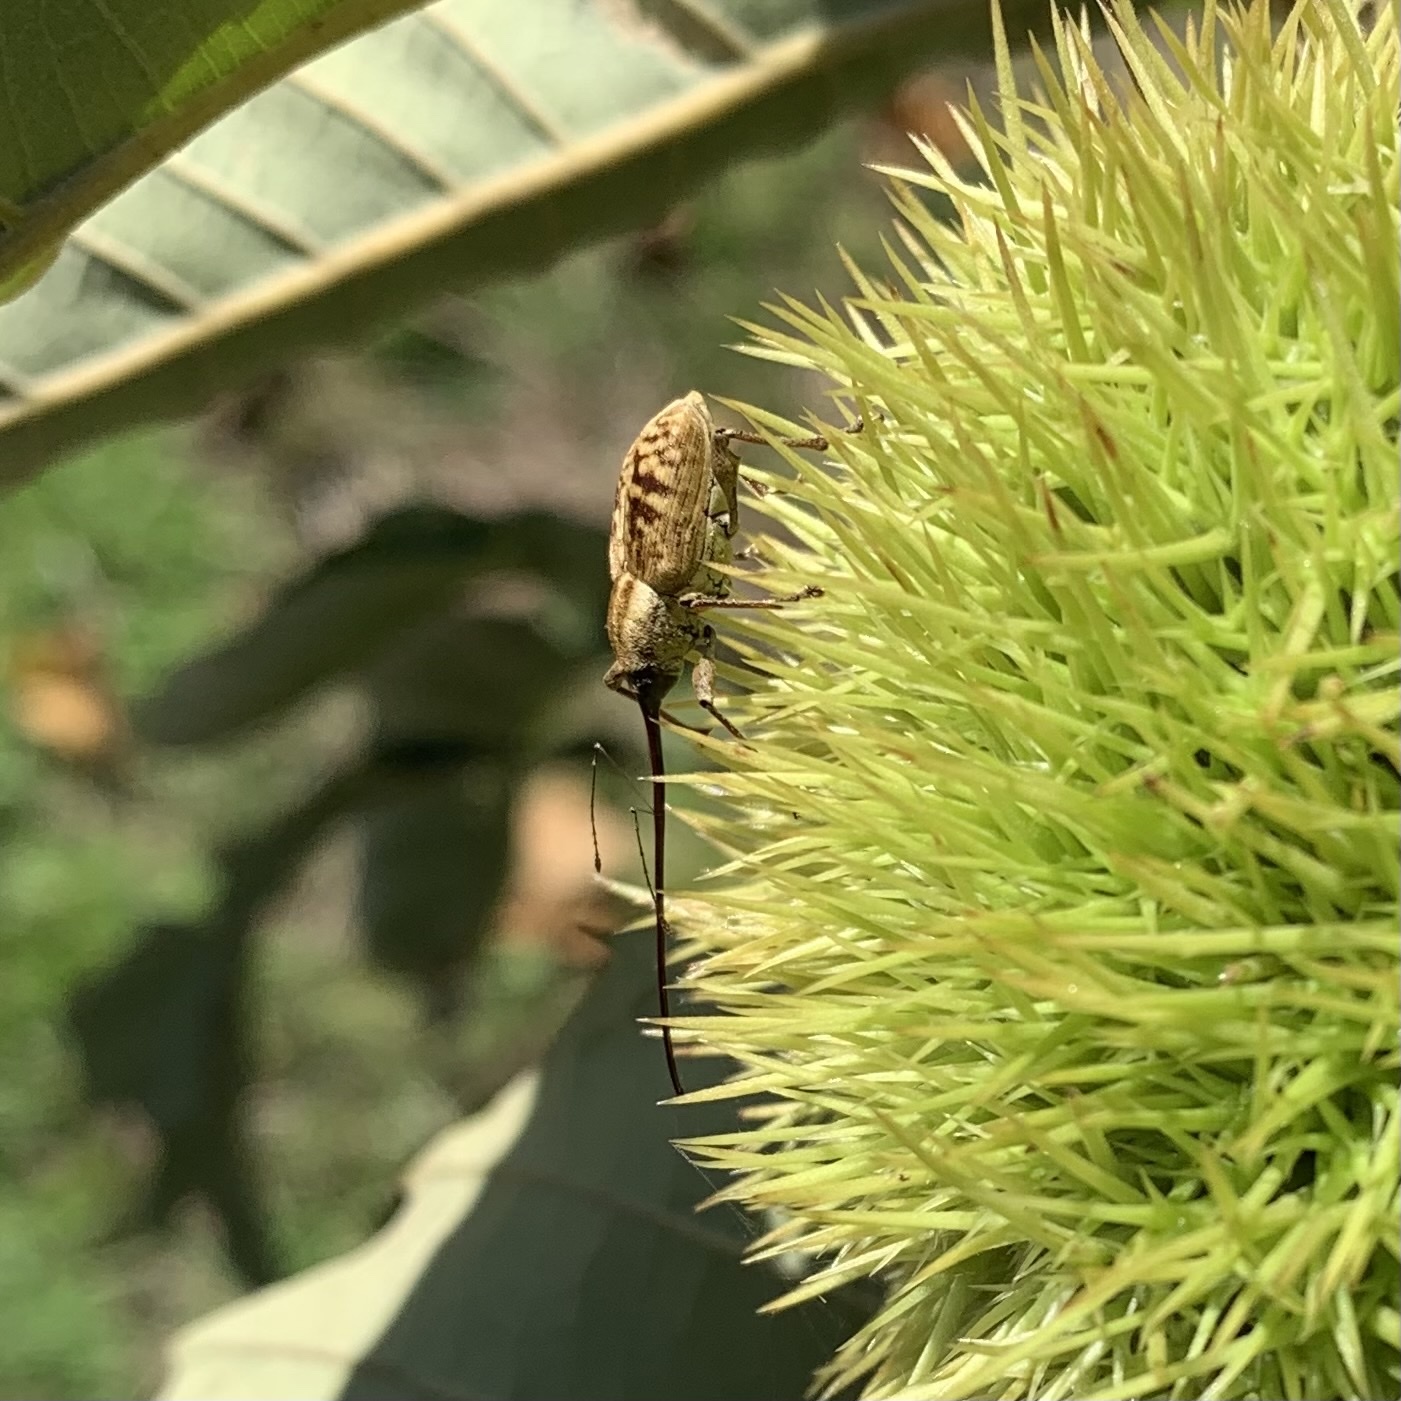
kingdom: Animalia
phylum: Arthropoda
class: Insecta
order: Coleoptera
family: Curculionidae
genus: Curculio
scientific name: Curculio caryatrypes
